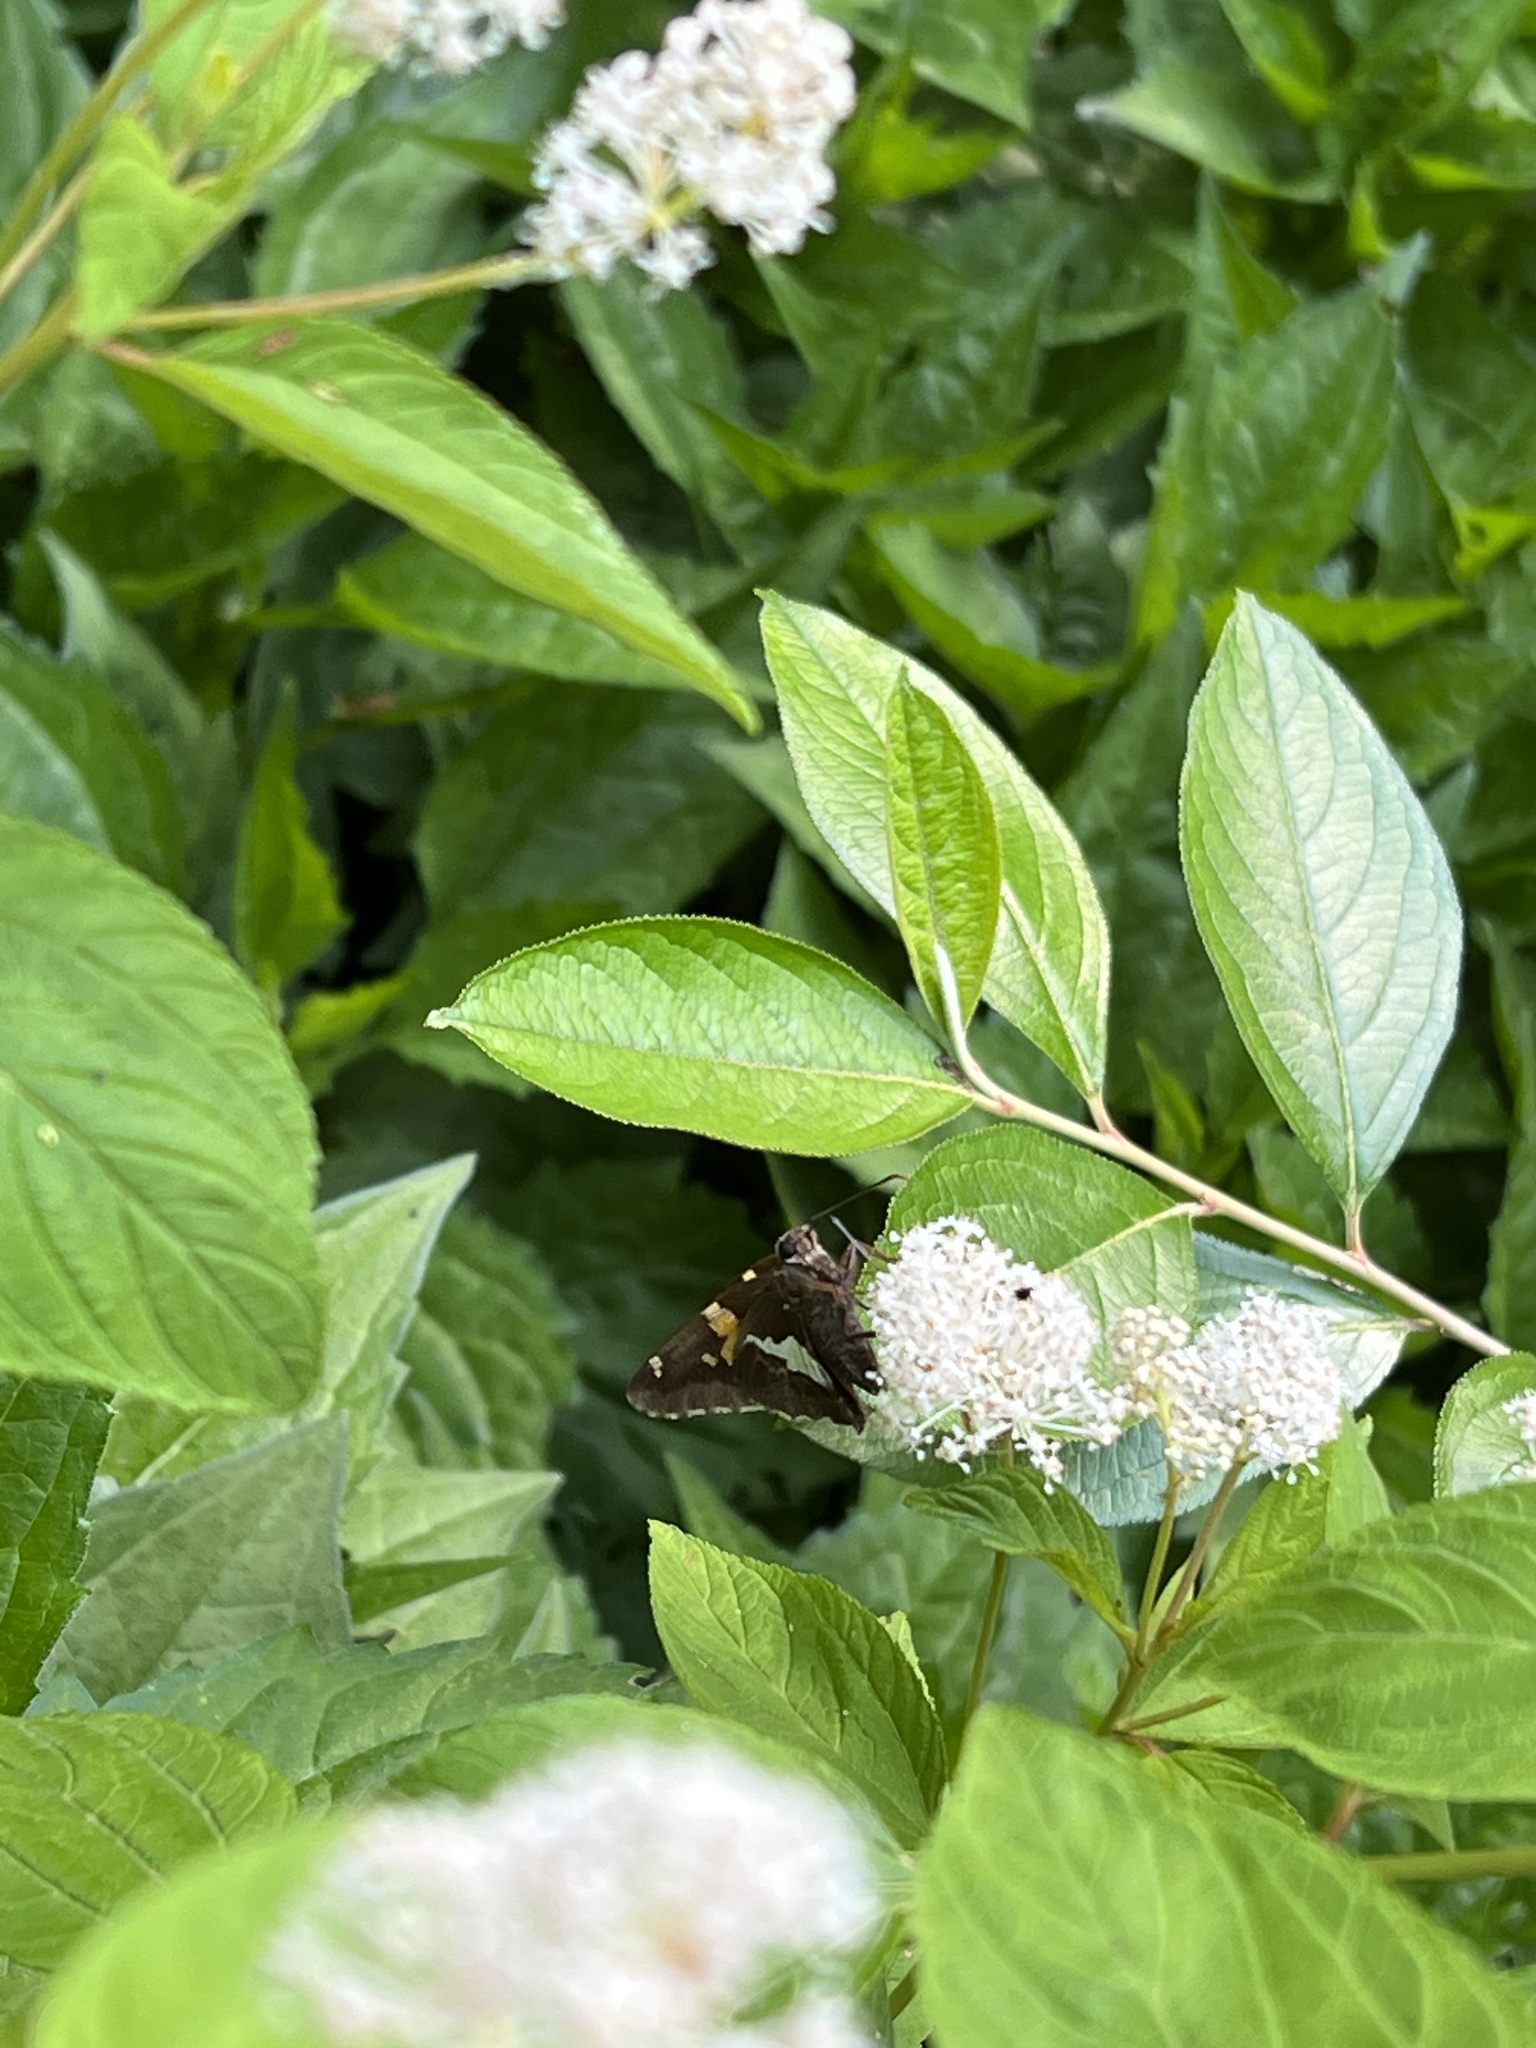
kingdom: Animalia
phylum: Arthropoda
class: Insecta
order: Lepidoptera
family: Hesperiidae
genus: Epargyreus
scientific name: Epargyreus clarus
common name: Silver-spotted skipper
